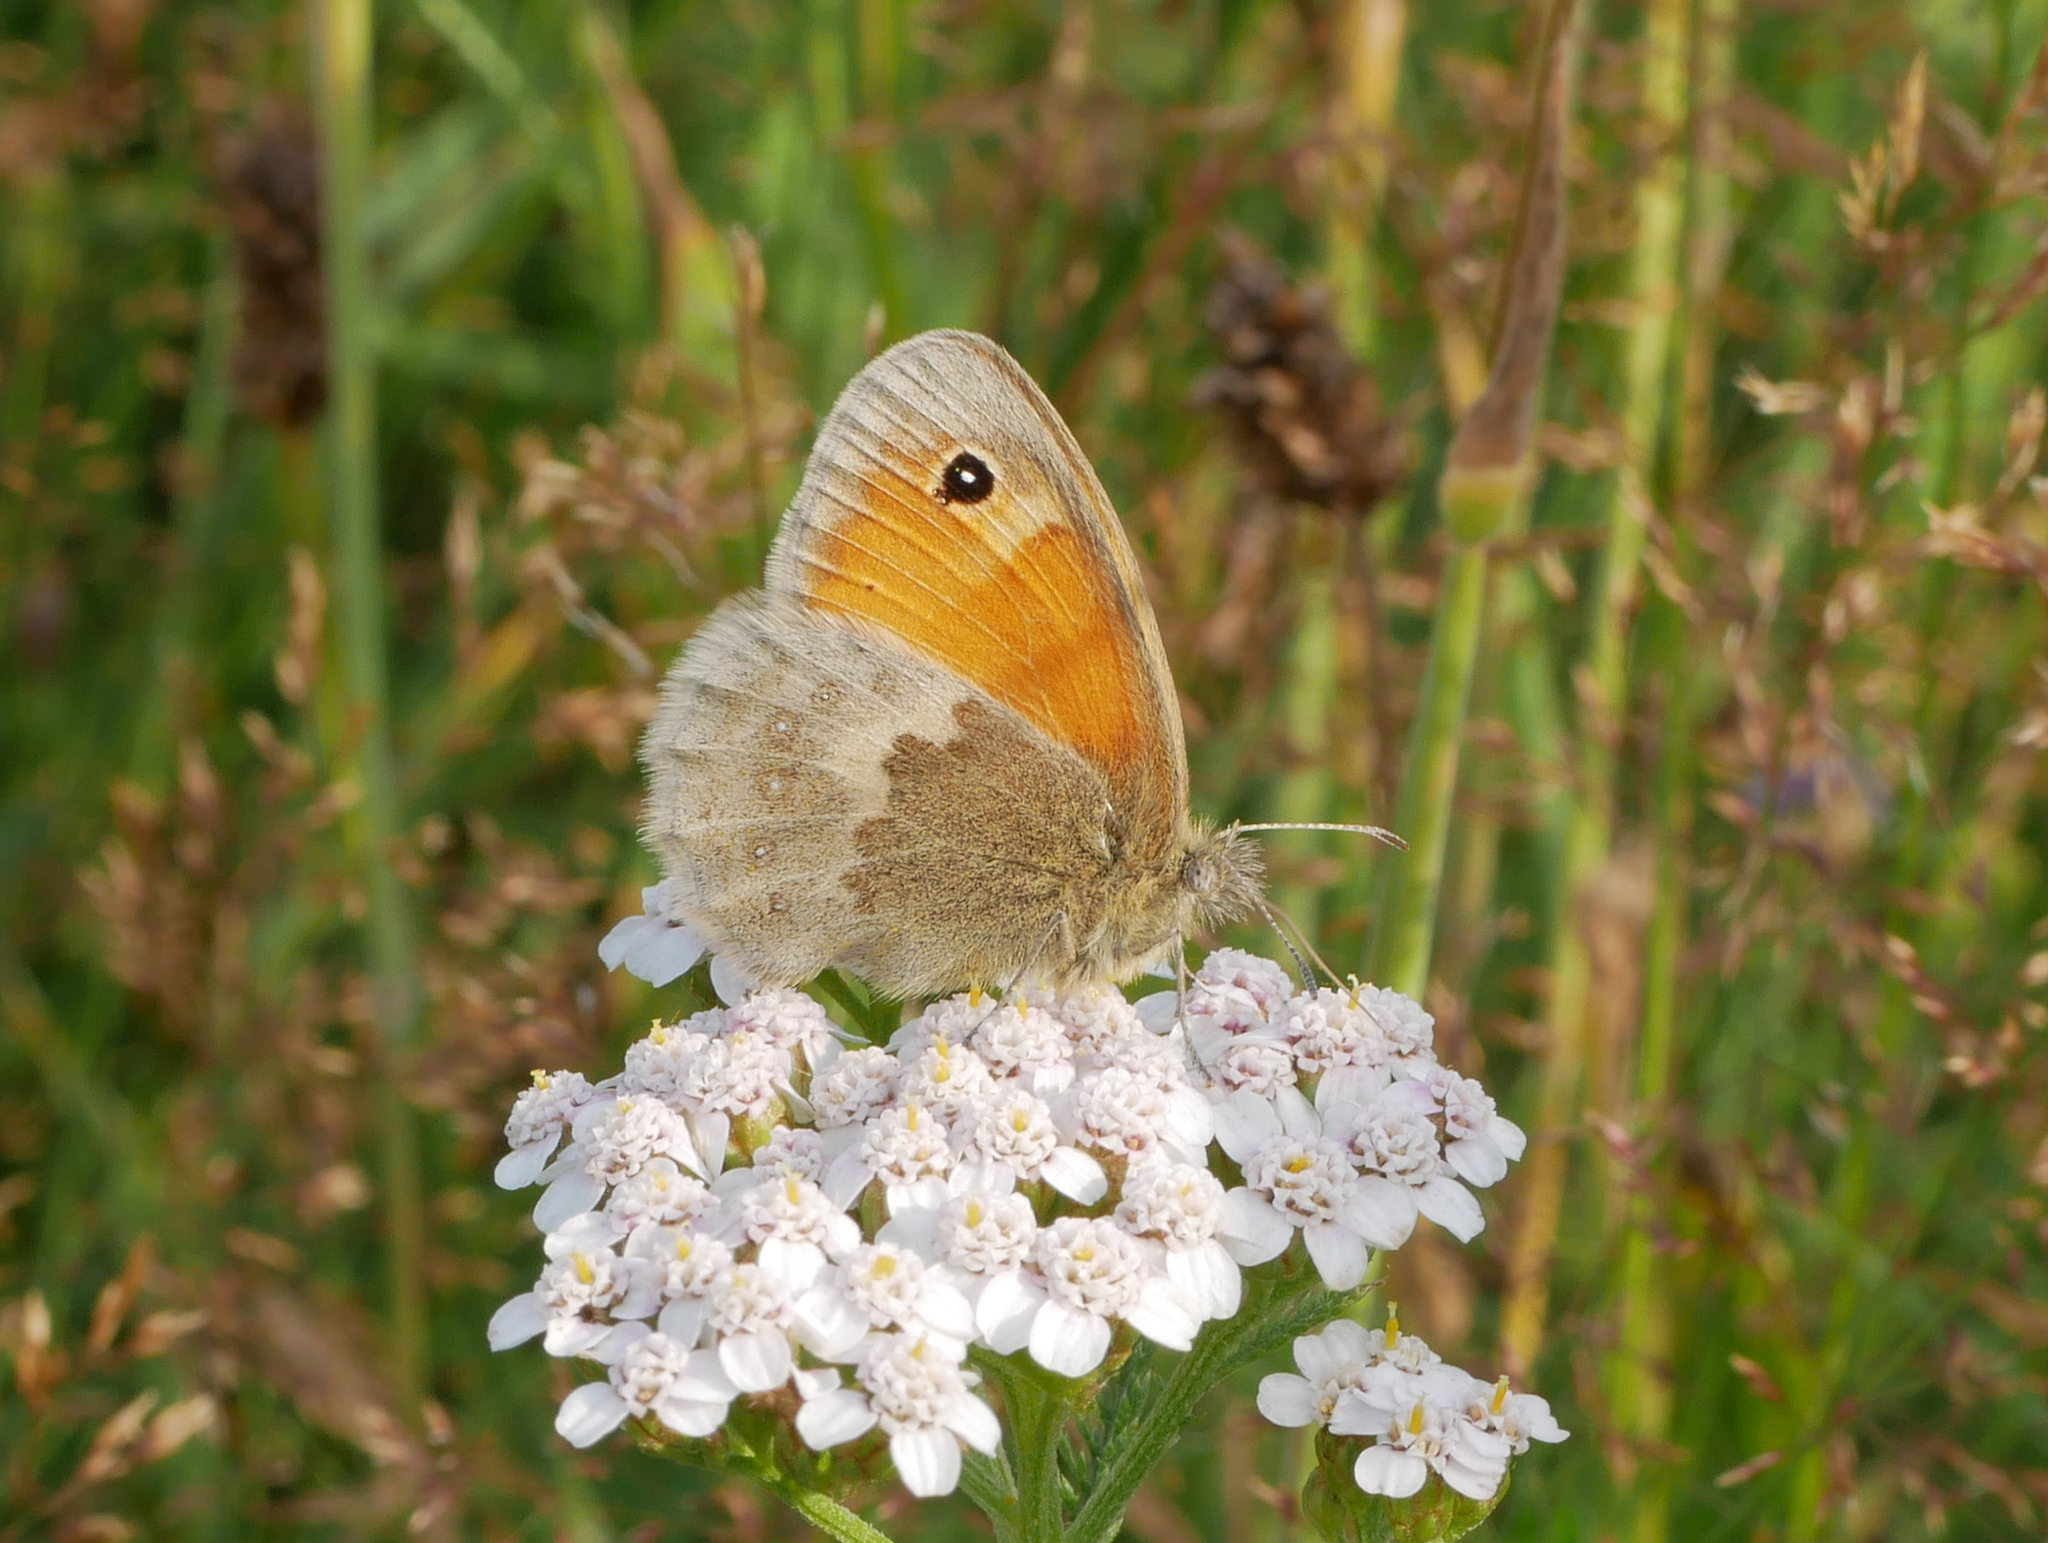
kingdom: Animalia
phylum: Arthropoda
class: Insecta
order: Lepidoptera
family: Nymphalidae
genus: Coenonympha
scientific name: Coenonympha pamphilus
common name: Small heath
